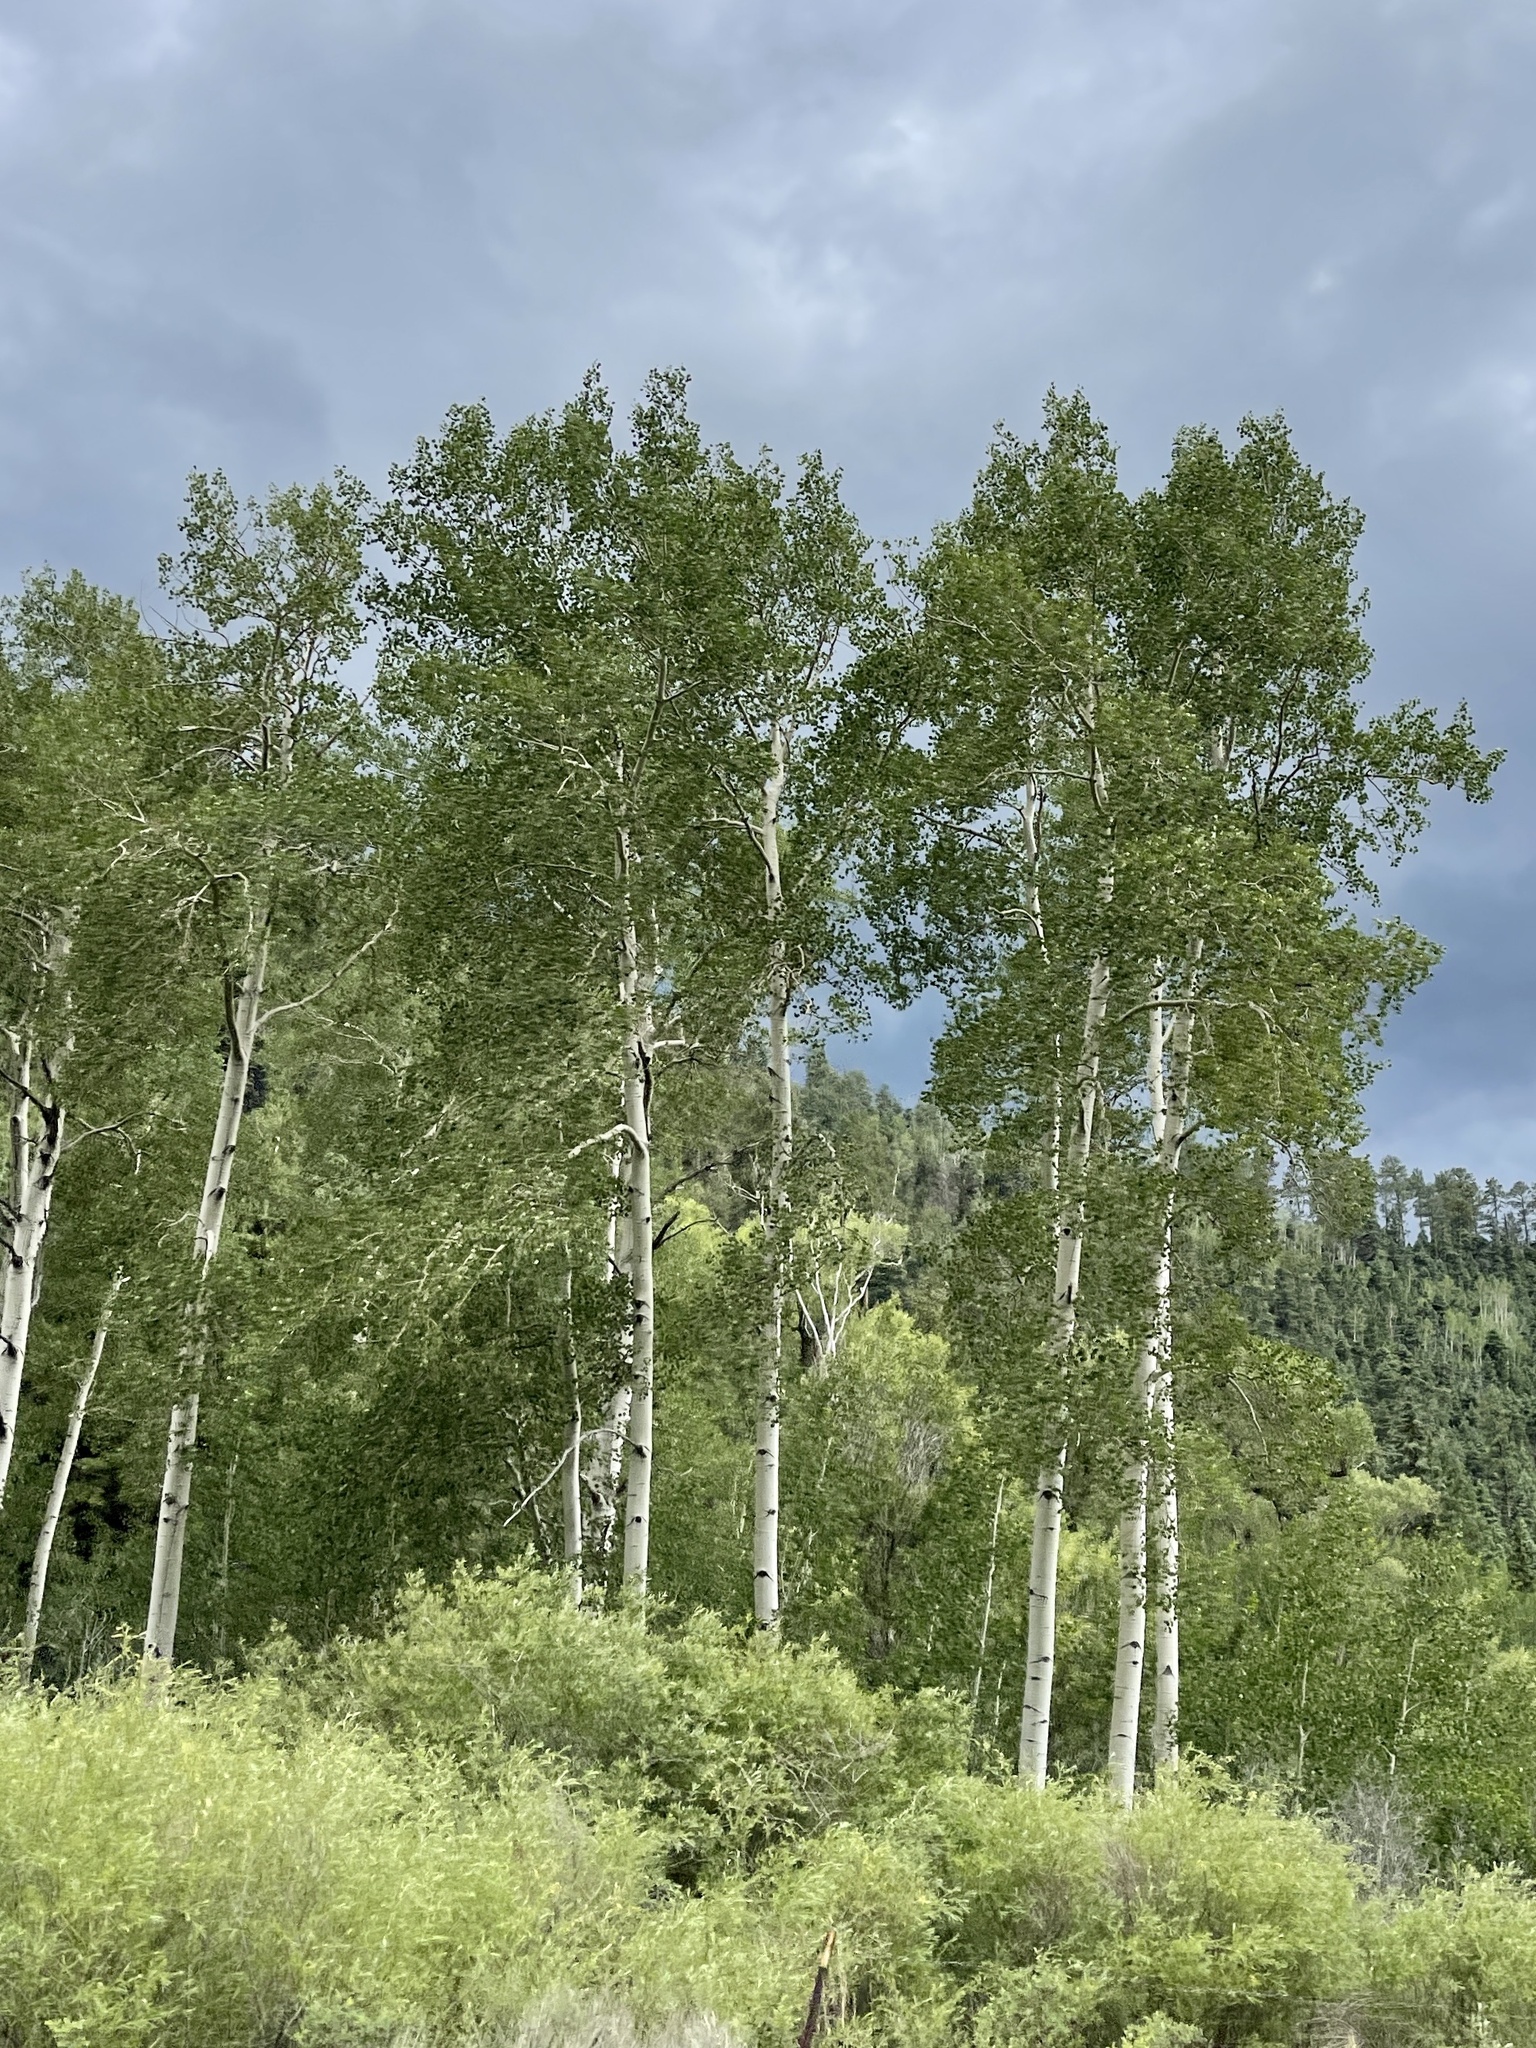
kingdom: Plantae
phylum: Tracheophyta
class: Magnoliopsida
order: Malpighiales
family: Salicaceae
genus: Populus
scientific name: Populus tremuloides
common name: Quaking aspen
